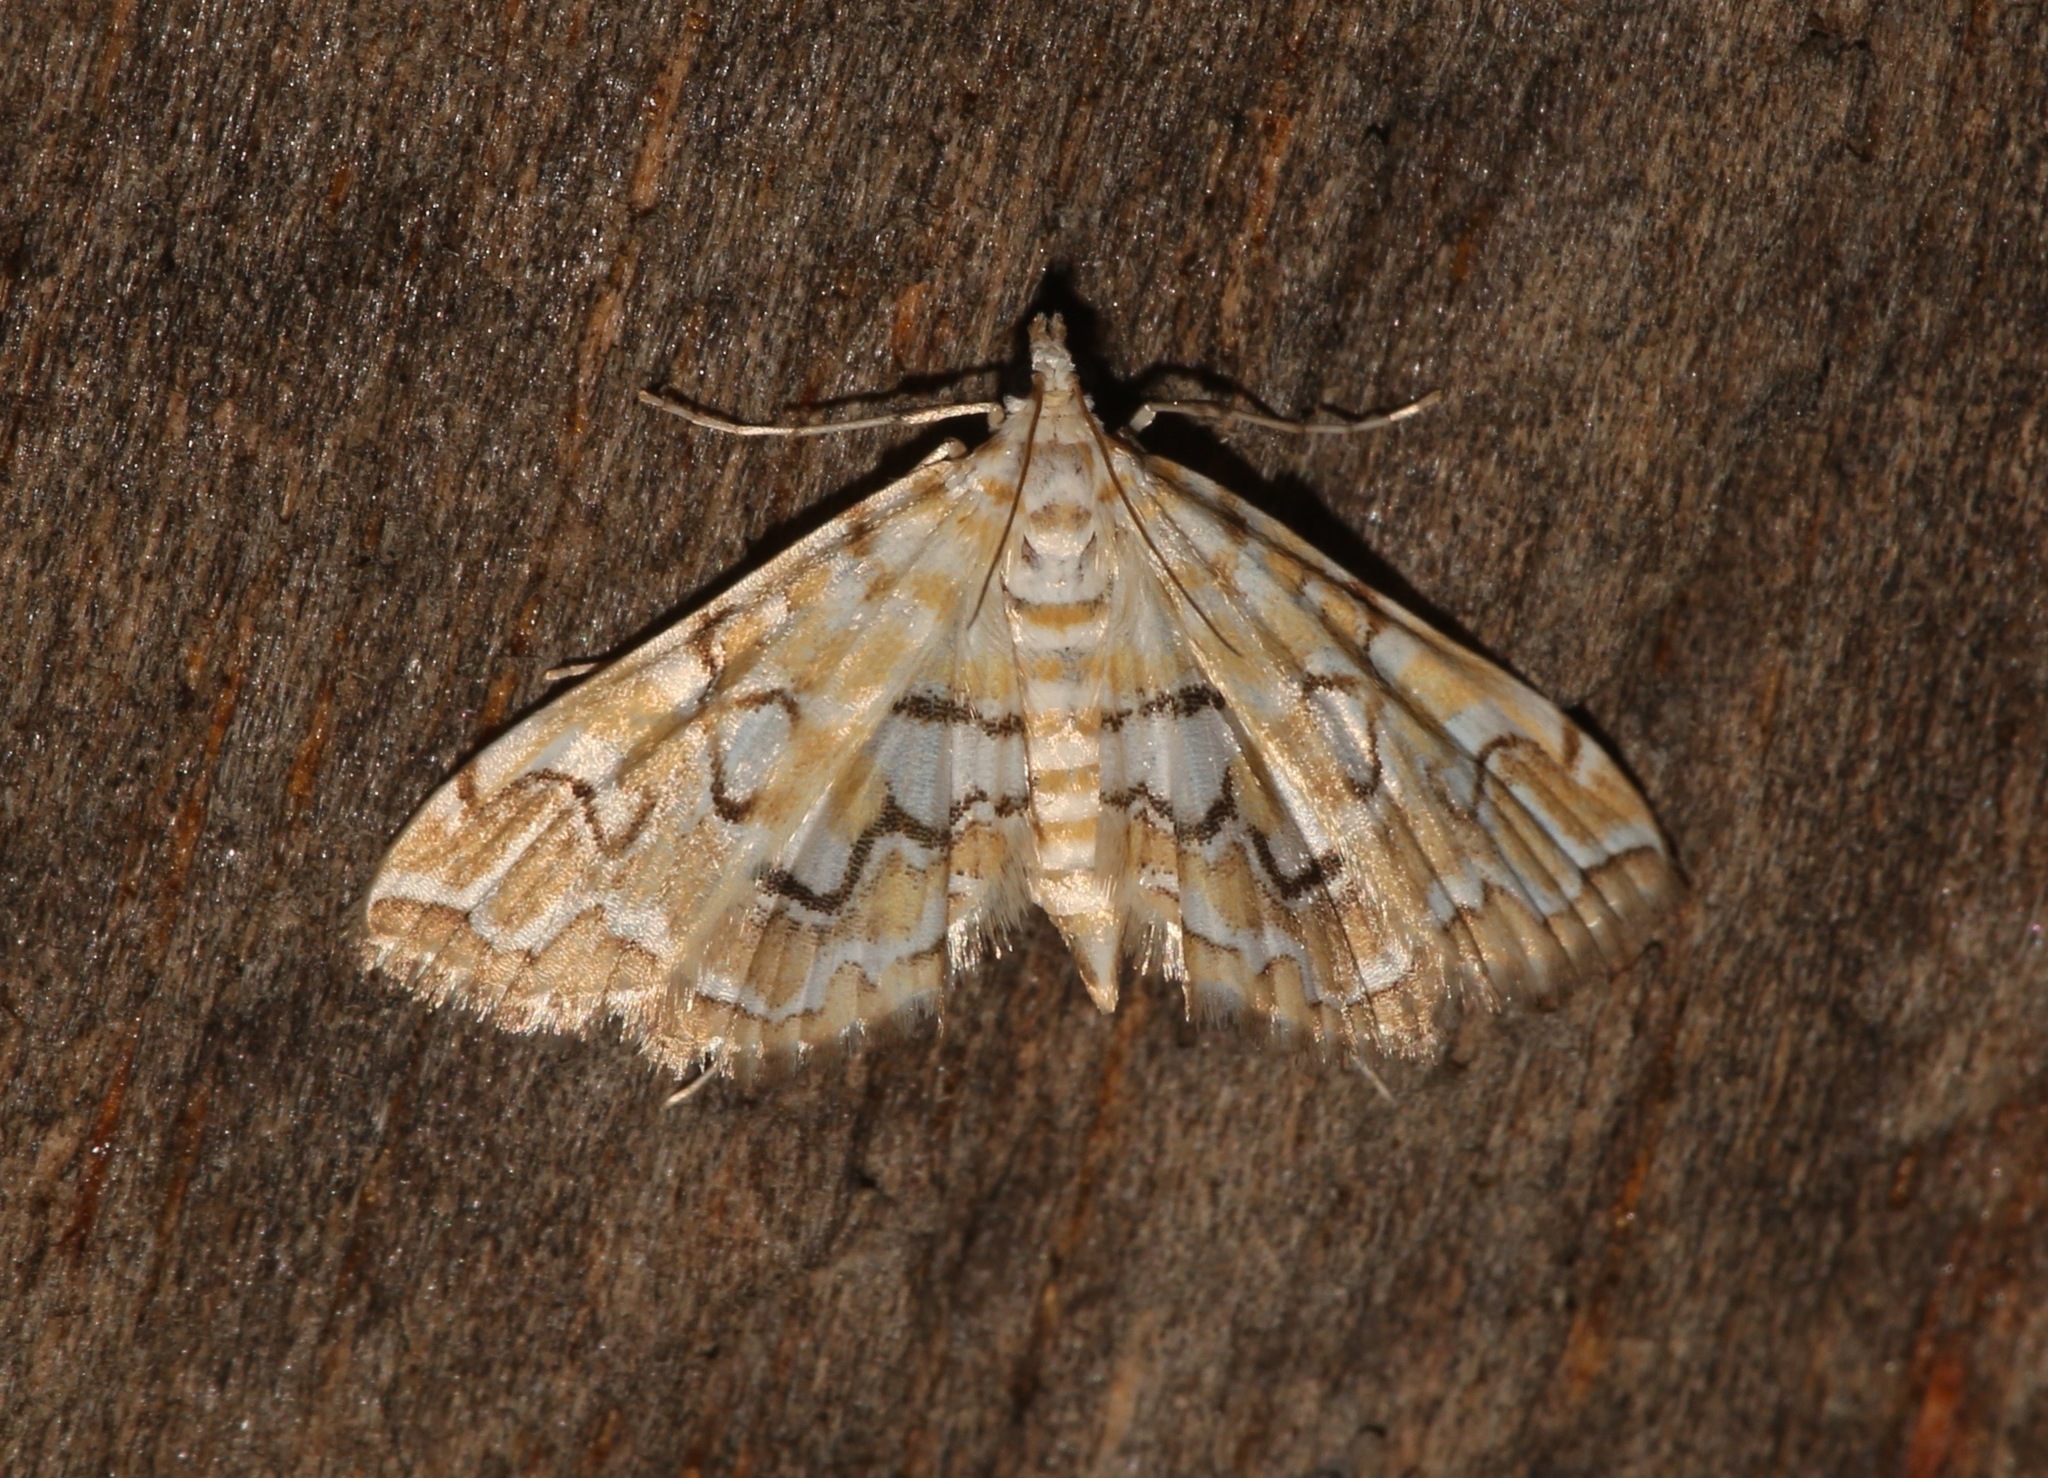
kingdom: Animalia
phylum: Arthropoda
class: Insecta
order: Lepidoptera
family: Crambidae
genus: Elophila
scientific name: Elophila icciusalis
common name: Pondside pyralid moth
